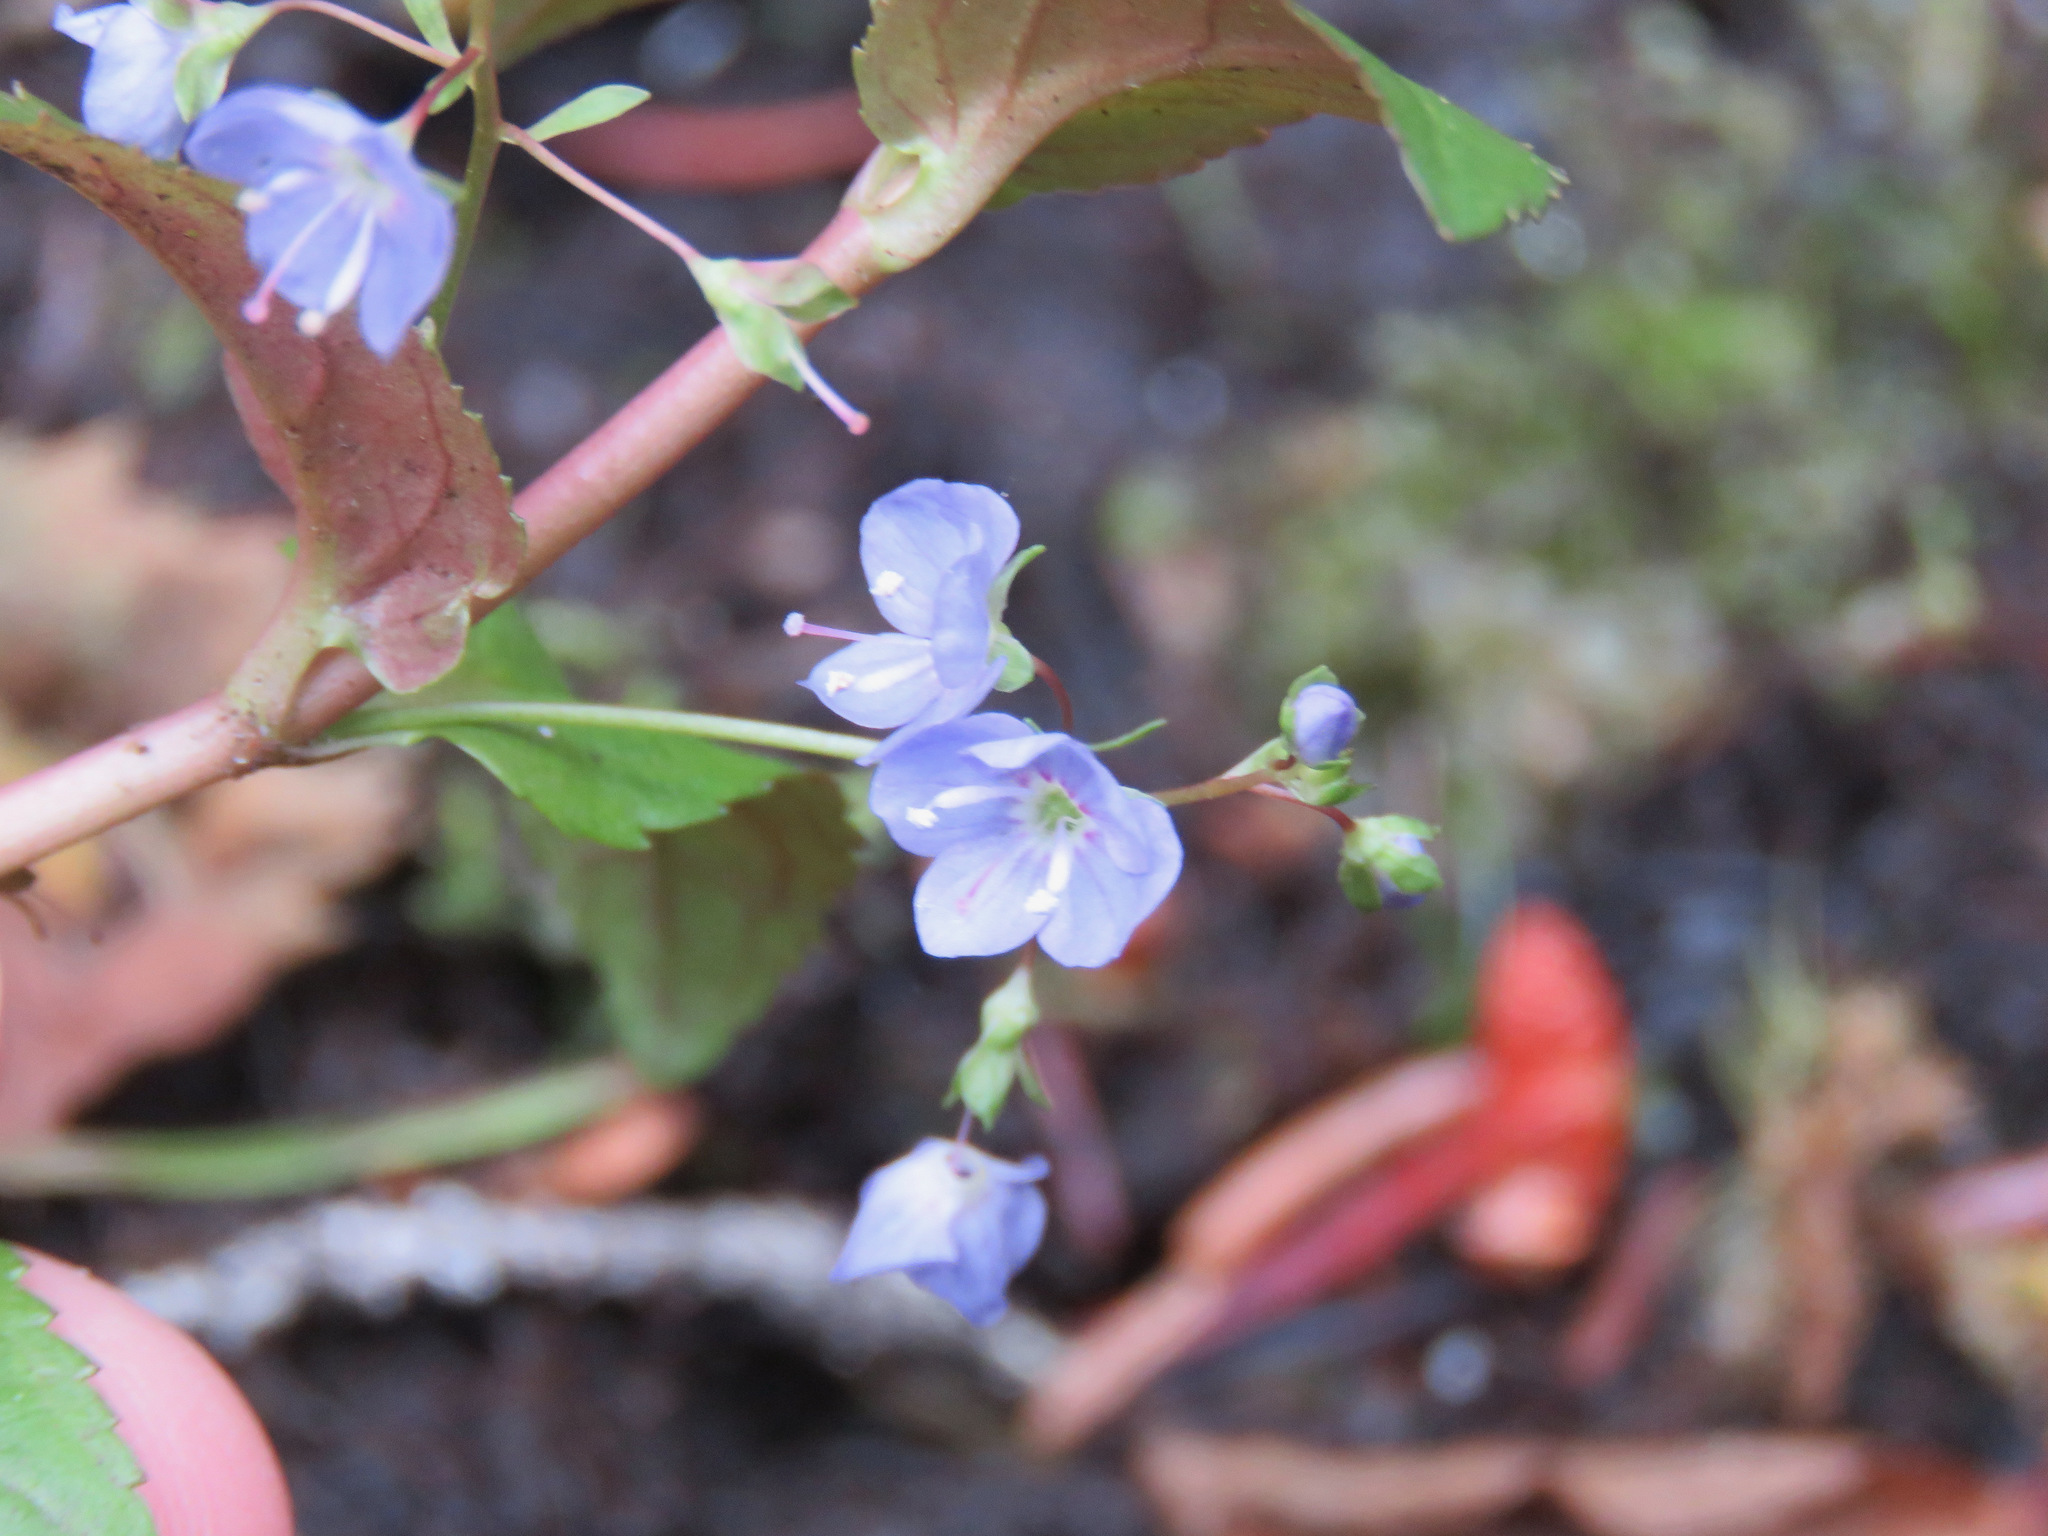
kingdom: Plantae
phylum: Tracheophyta
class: Magnoliopsida
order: Lamiales
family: Plantaginaceae
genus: Veronica
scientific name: Veronica americana
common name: American brooklime
